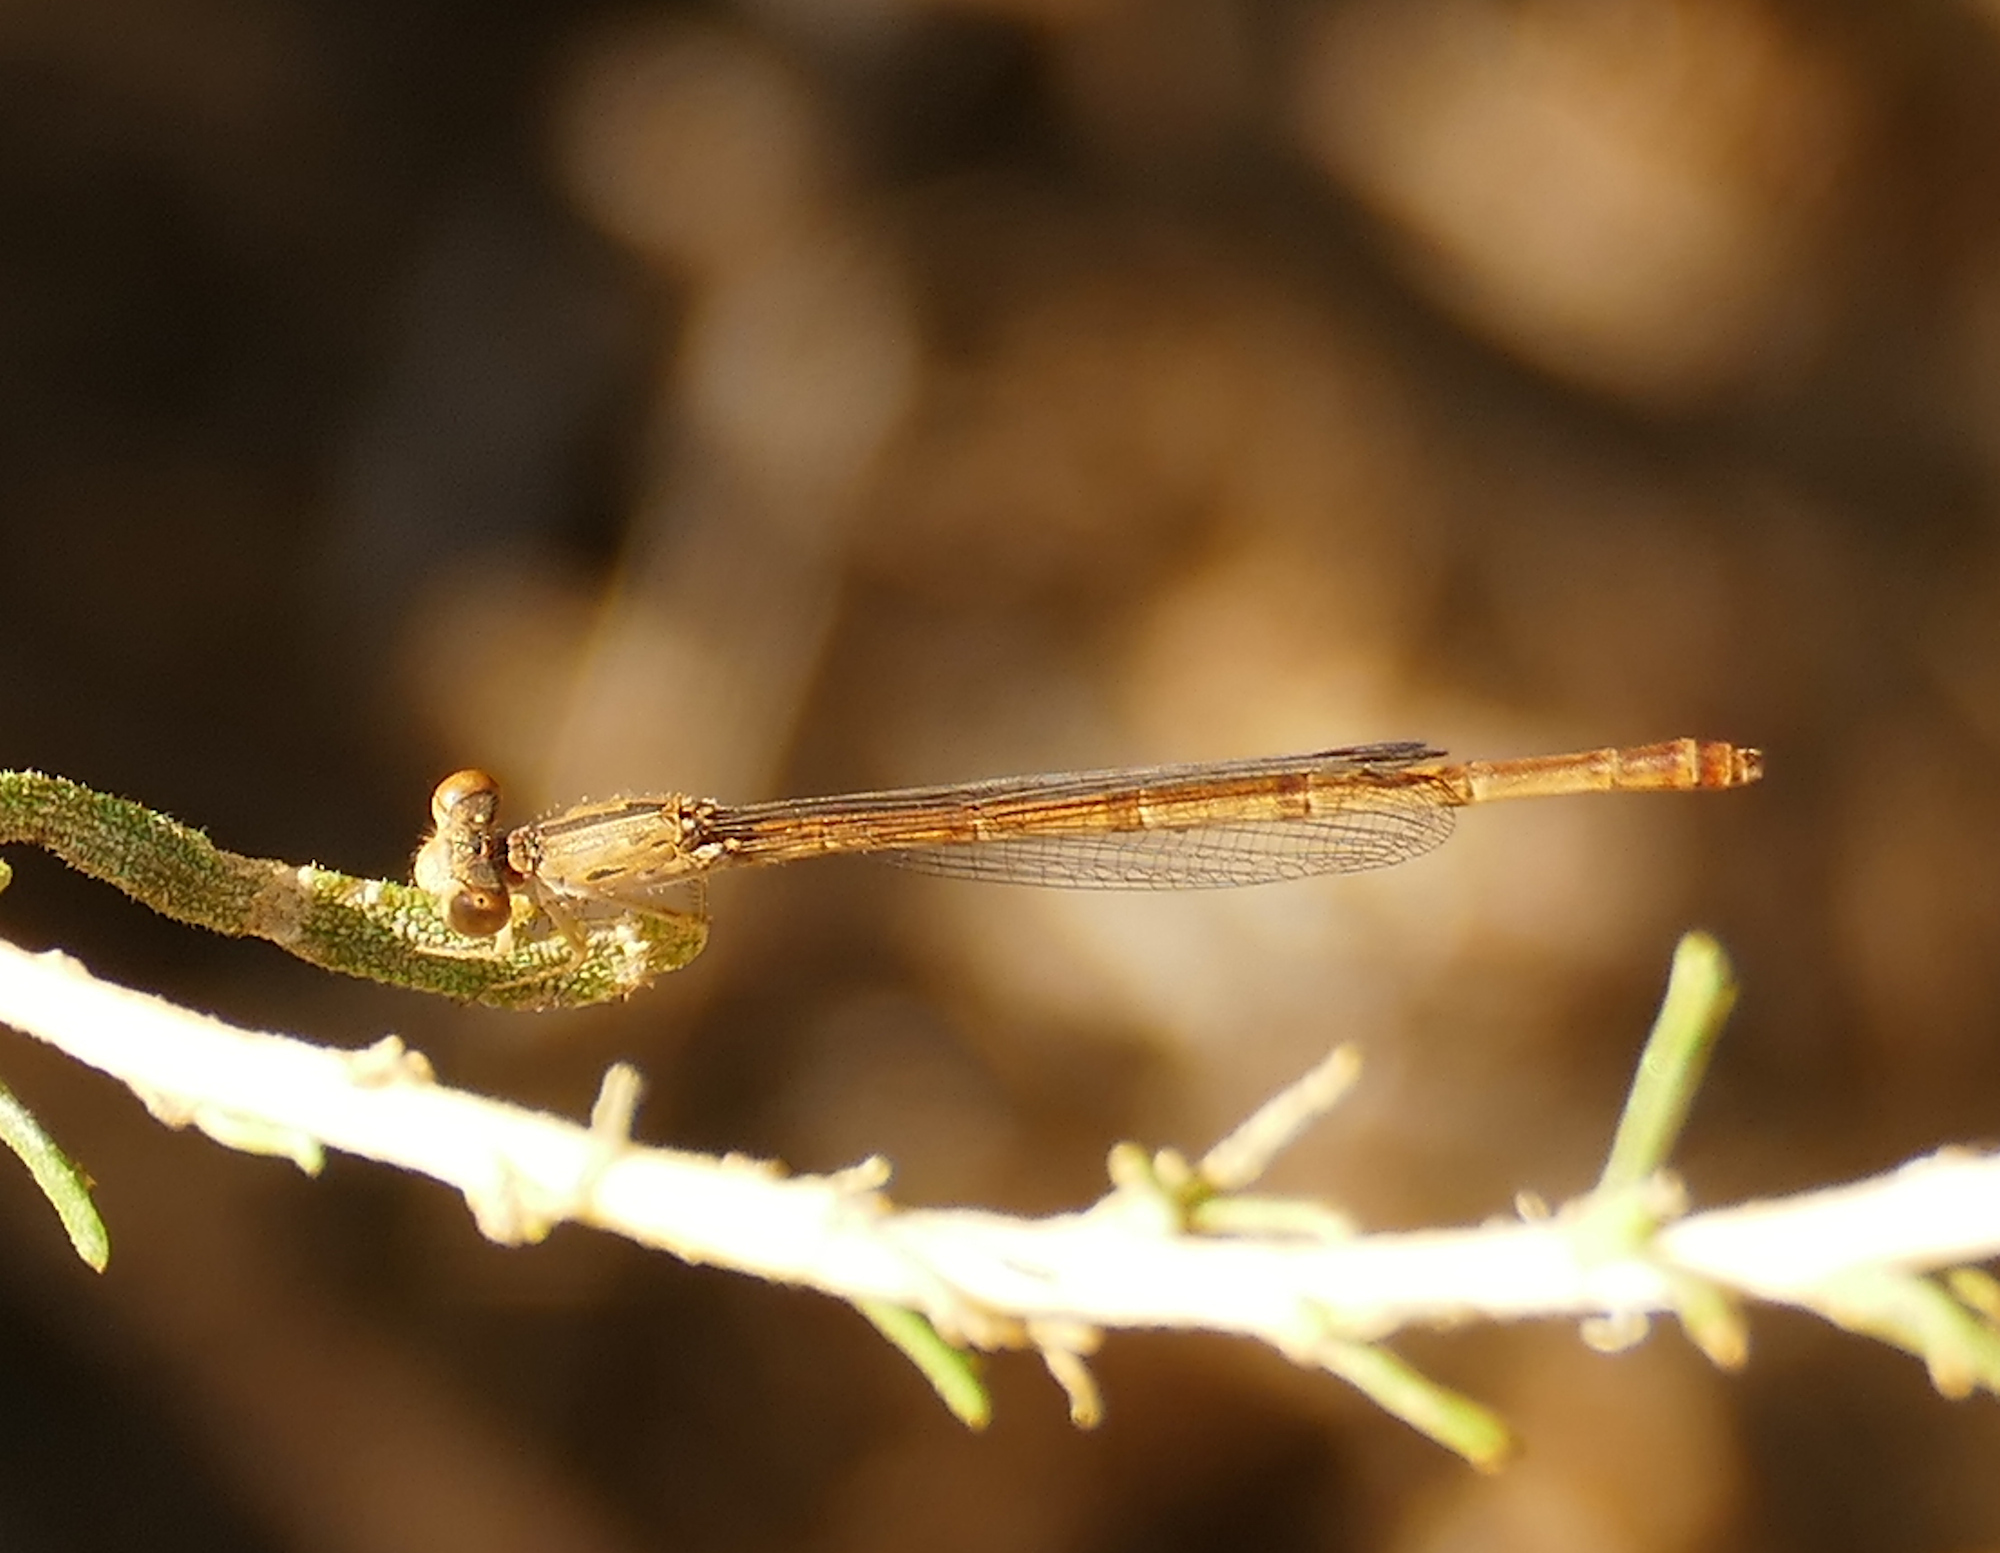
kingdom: Animalia
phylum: Arthropoda
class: Insecta
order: Odonata
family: Coenagrionidae
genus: Telebasis
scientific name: Telebasis salva
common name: Desert firetail
